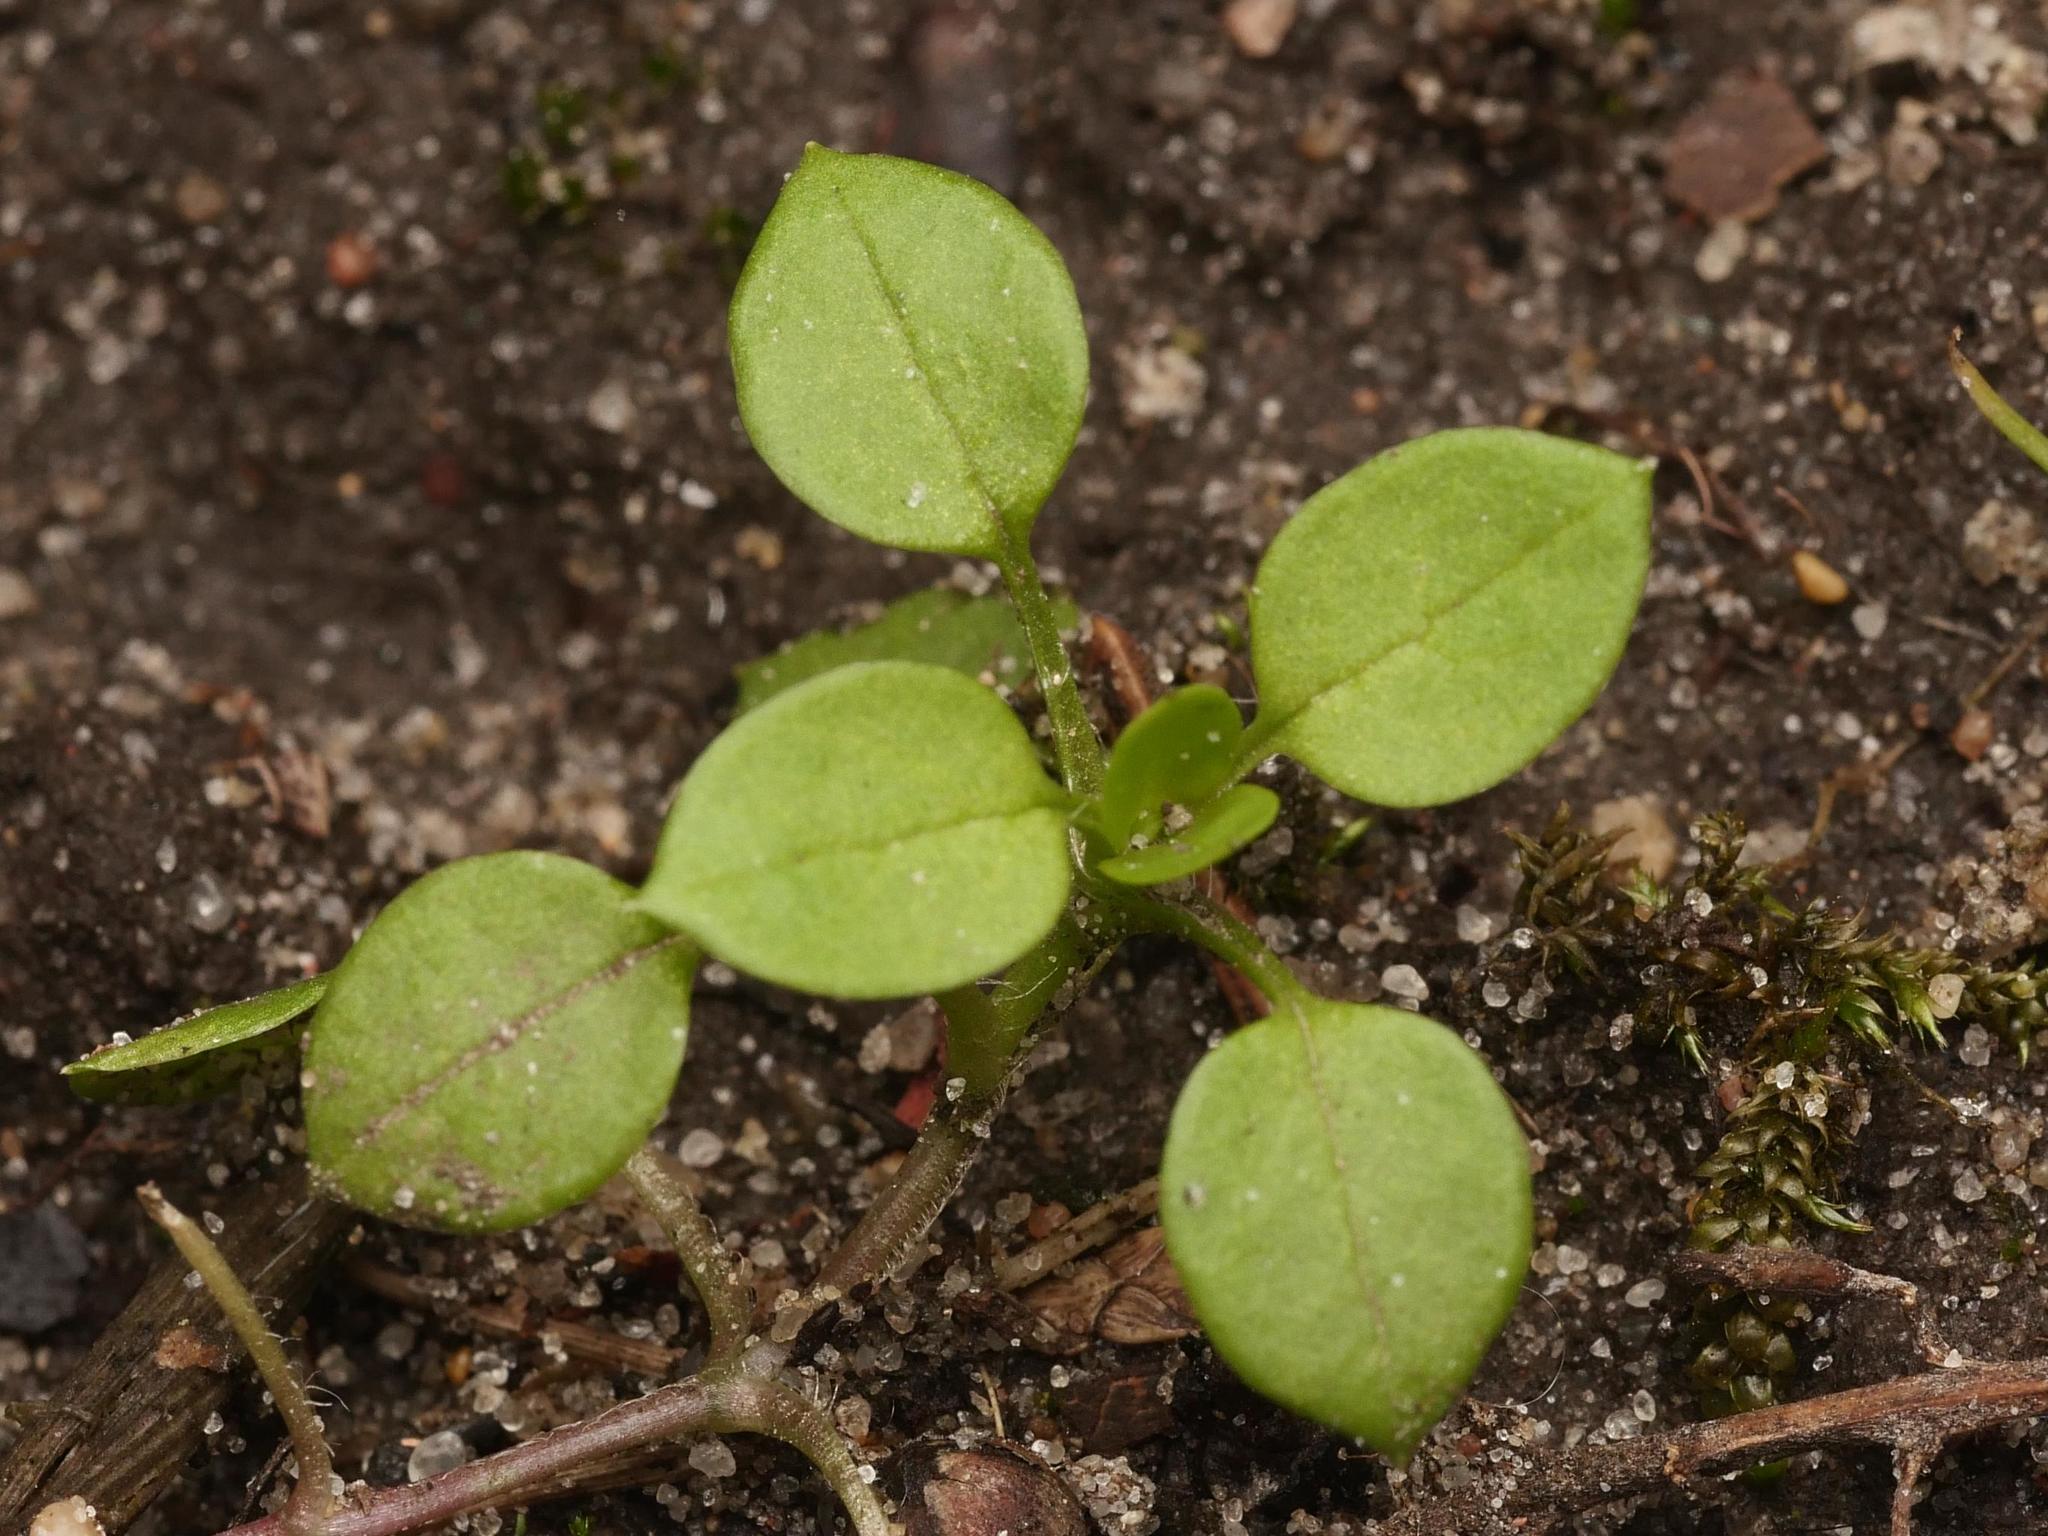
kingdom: Plantae
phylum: Tracheophyta
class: Magnoliopsida
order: Caryophyllales
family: Caryophyllaceae
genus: Stellaria
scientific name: Stellaria media
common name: Common chickweed
